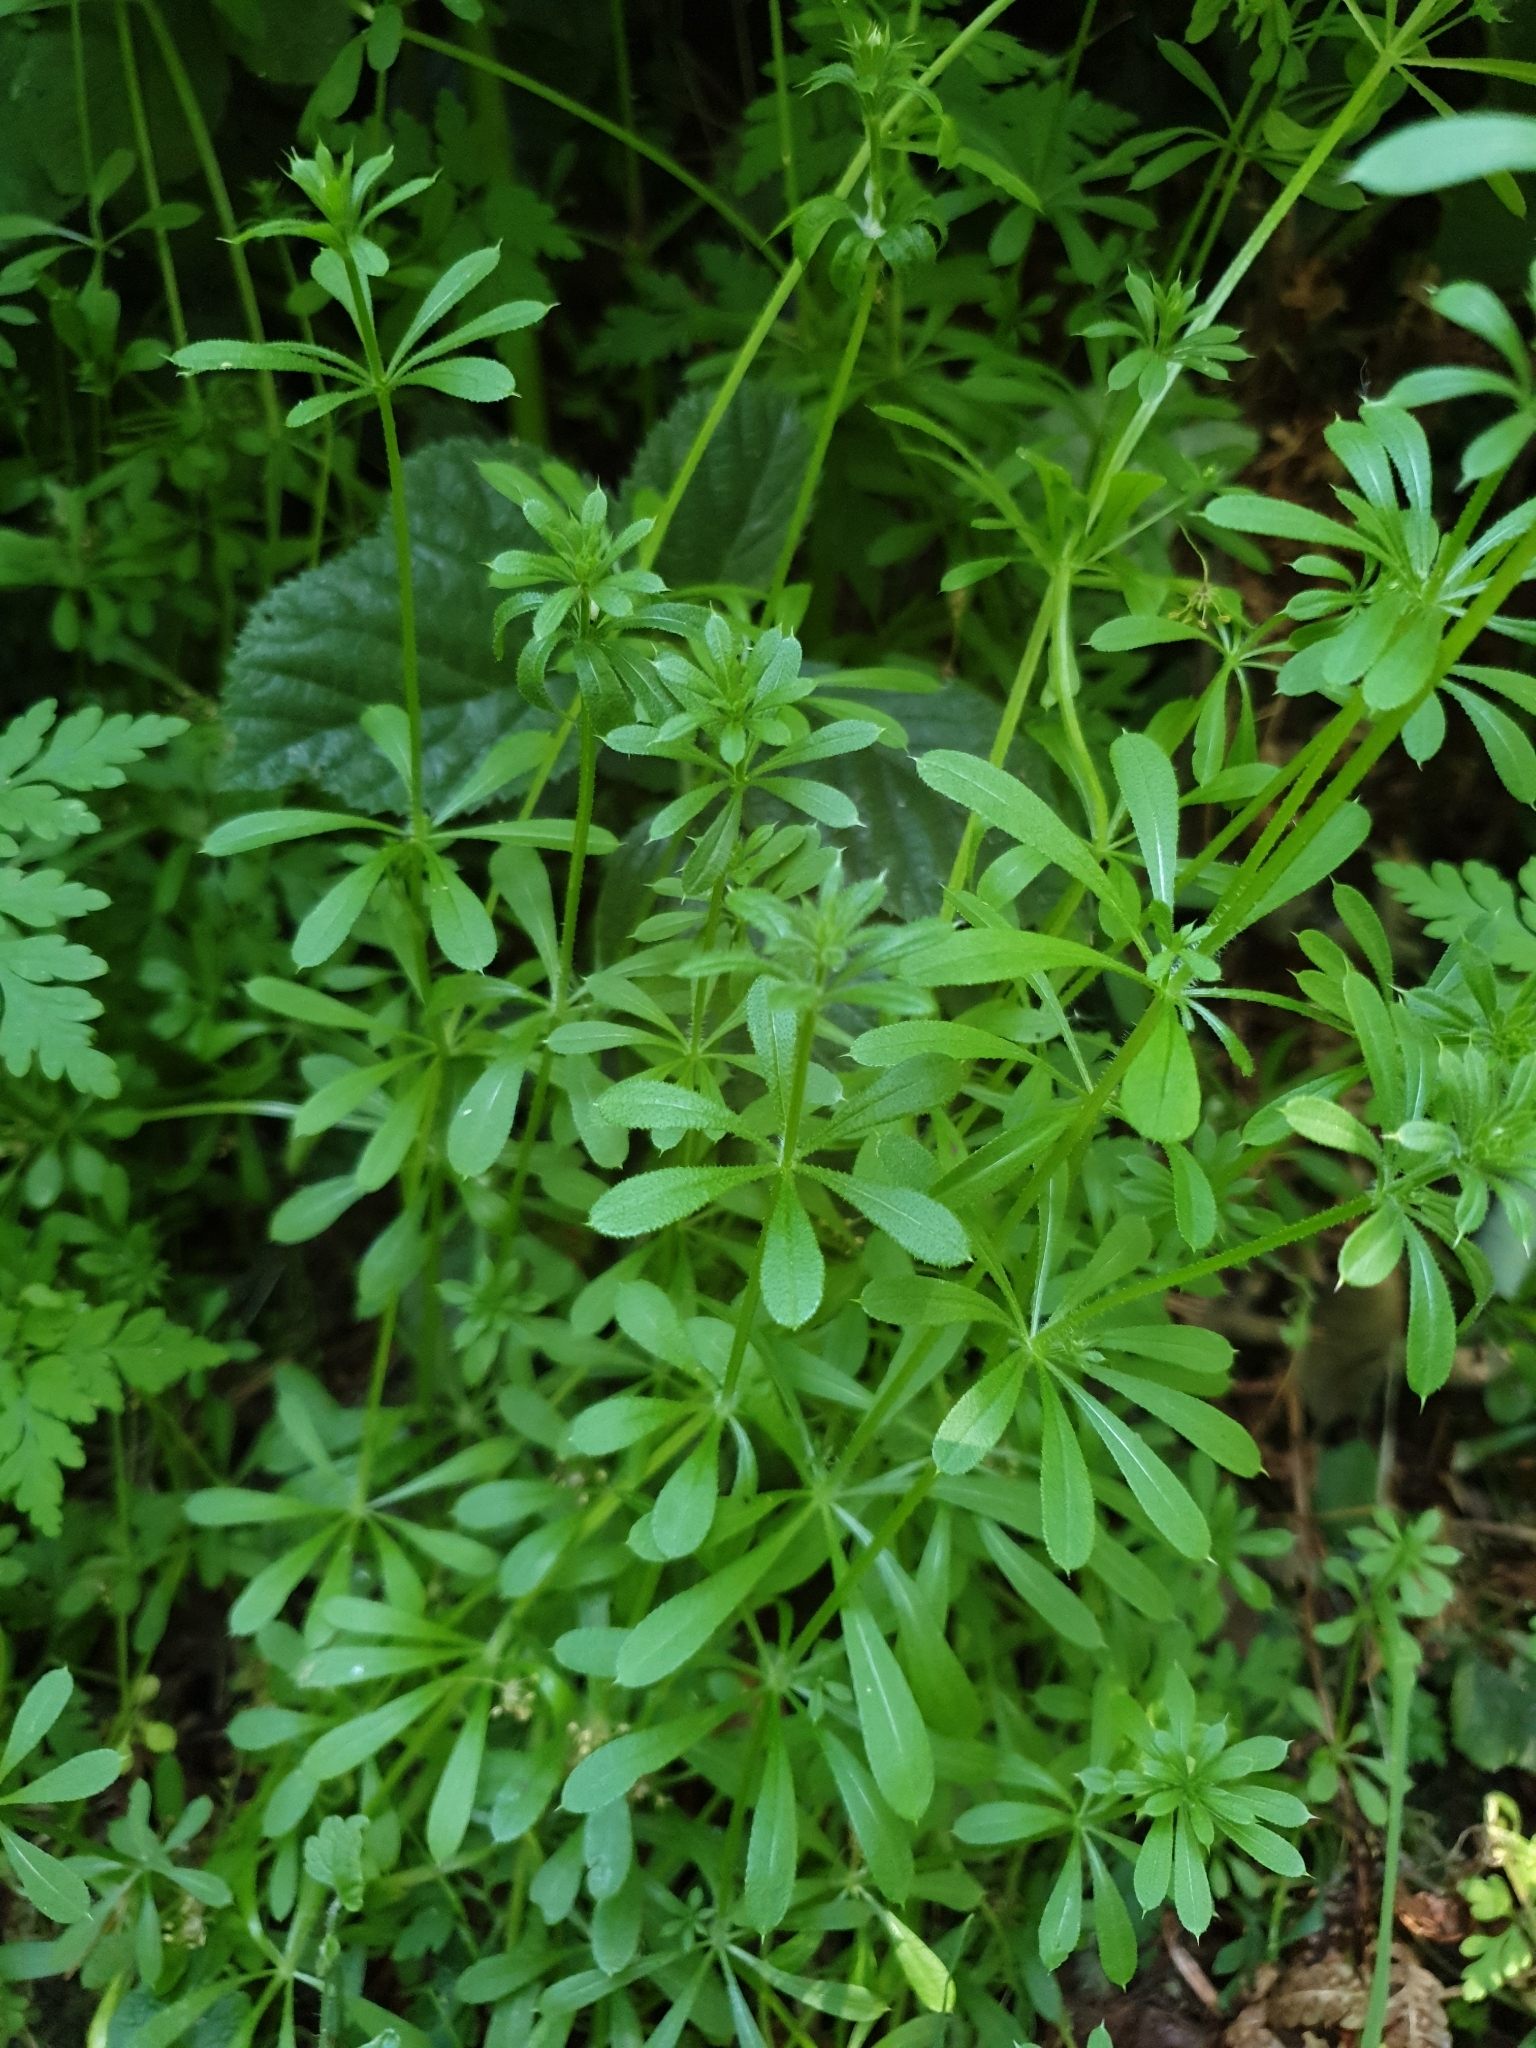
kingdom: Plantae
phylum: Tracheophyta
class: Magnoliopsida
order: Gentianales
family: Rubiaceae
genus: Galium
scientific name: Galium aparine
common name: Cleavers
